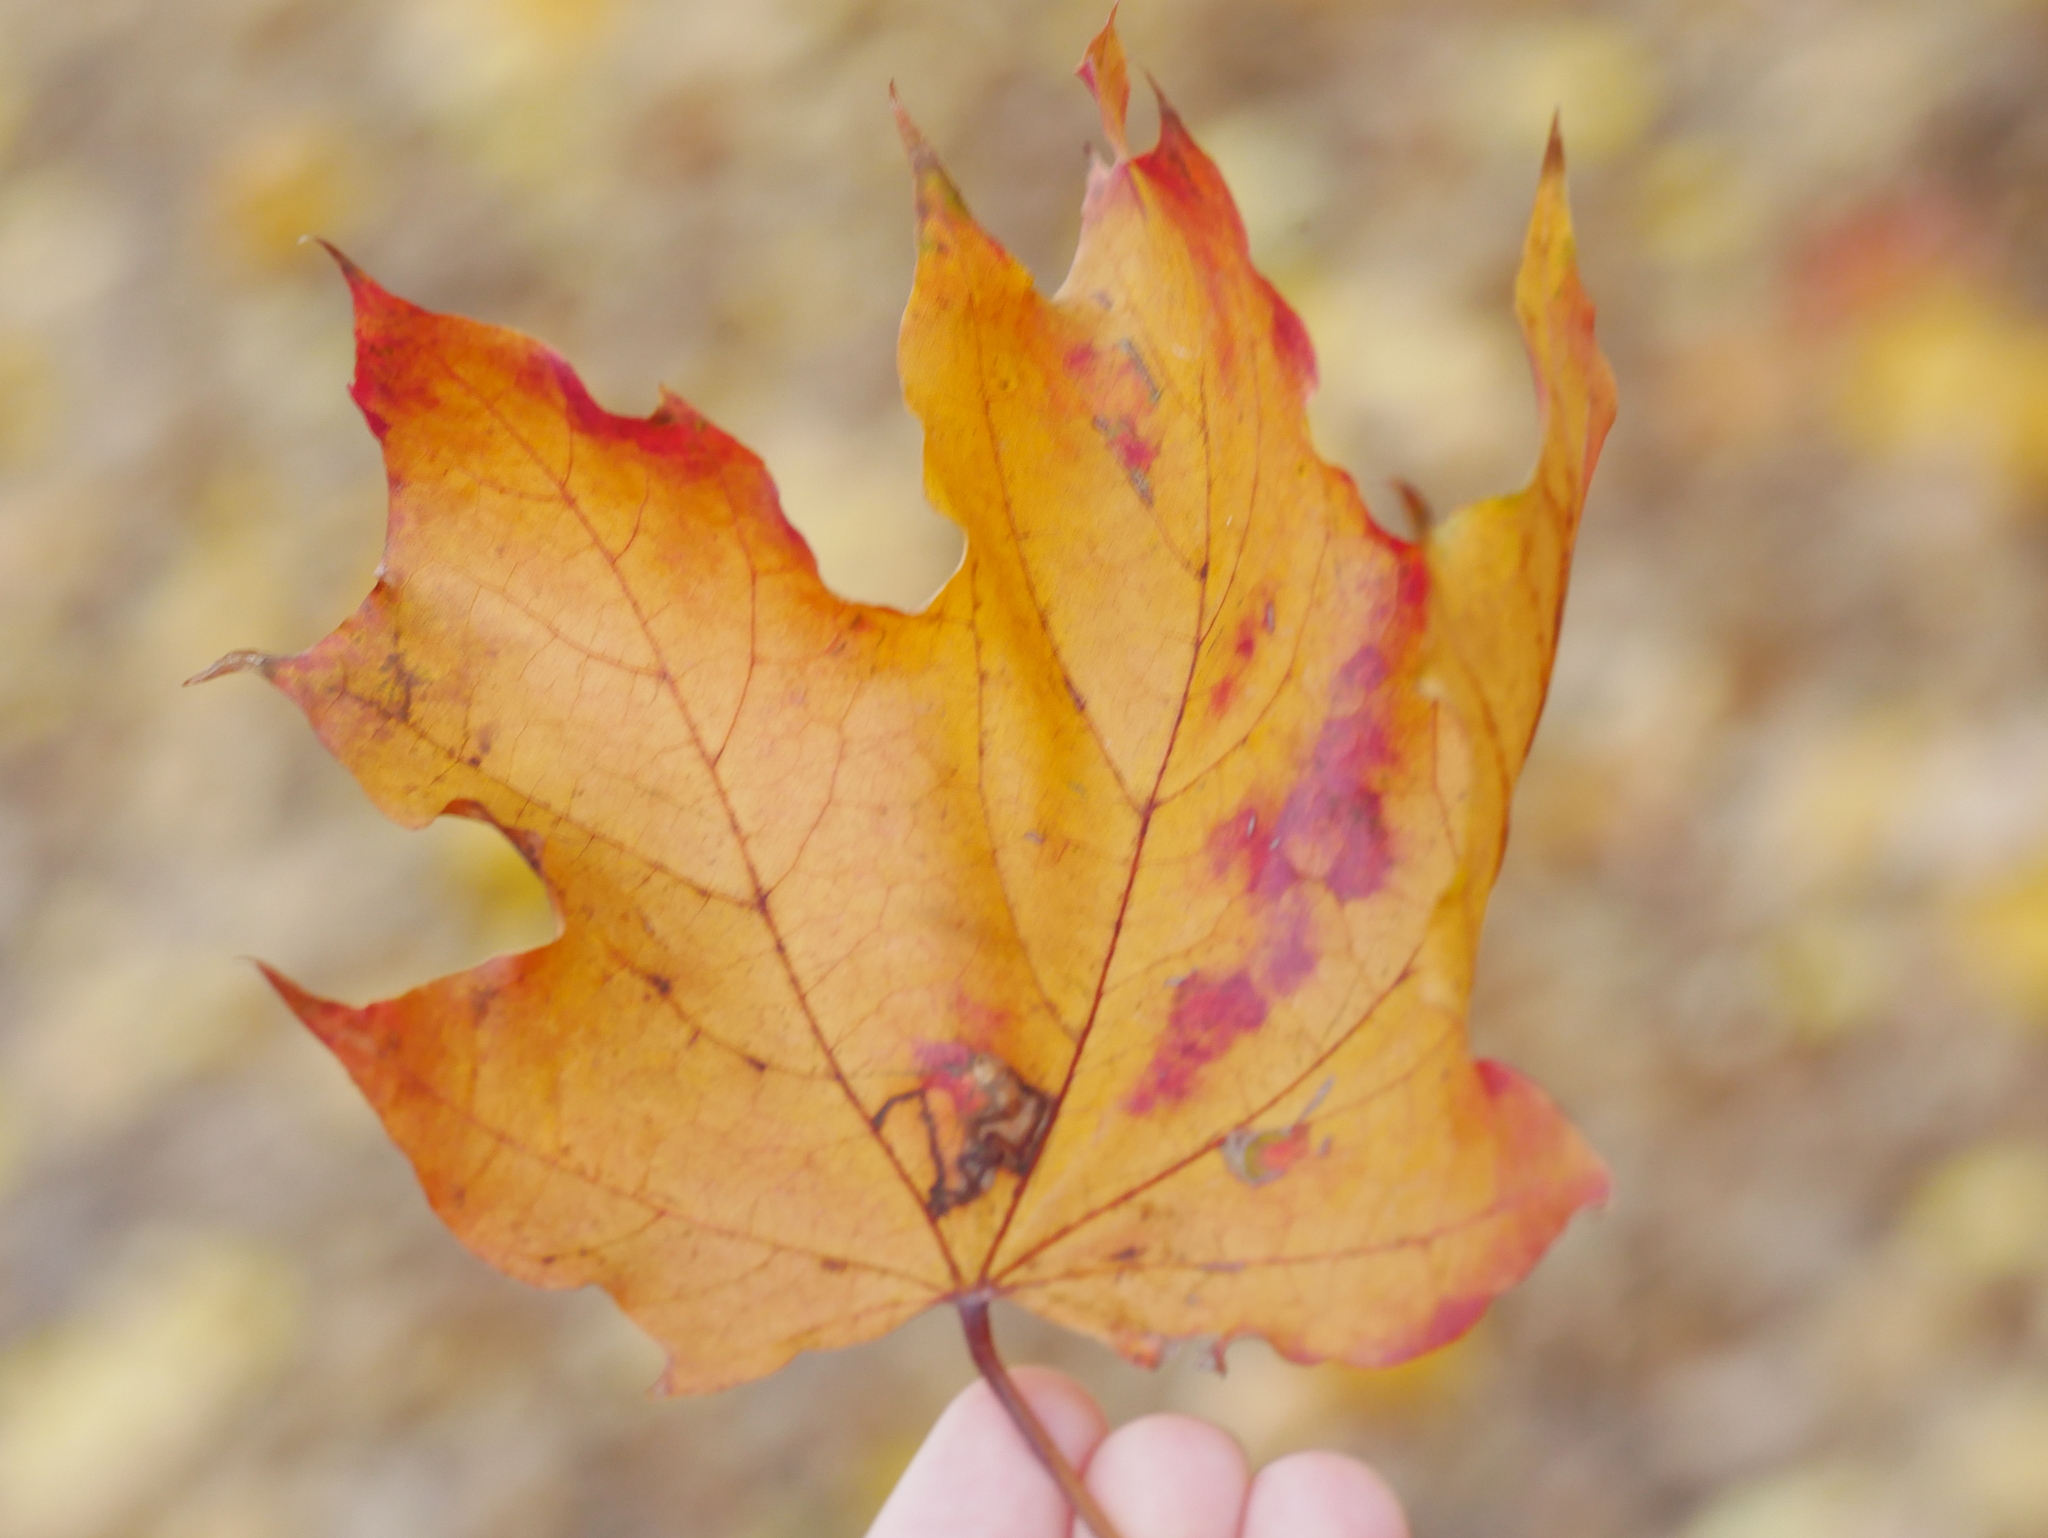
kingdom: Plantae
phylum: Tracheophyta
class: Magnoliopsida
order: Sapindales
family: Sapindaceae
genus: Acer
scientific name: Acer platanoides
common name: Norway maple
